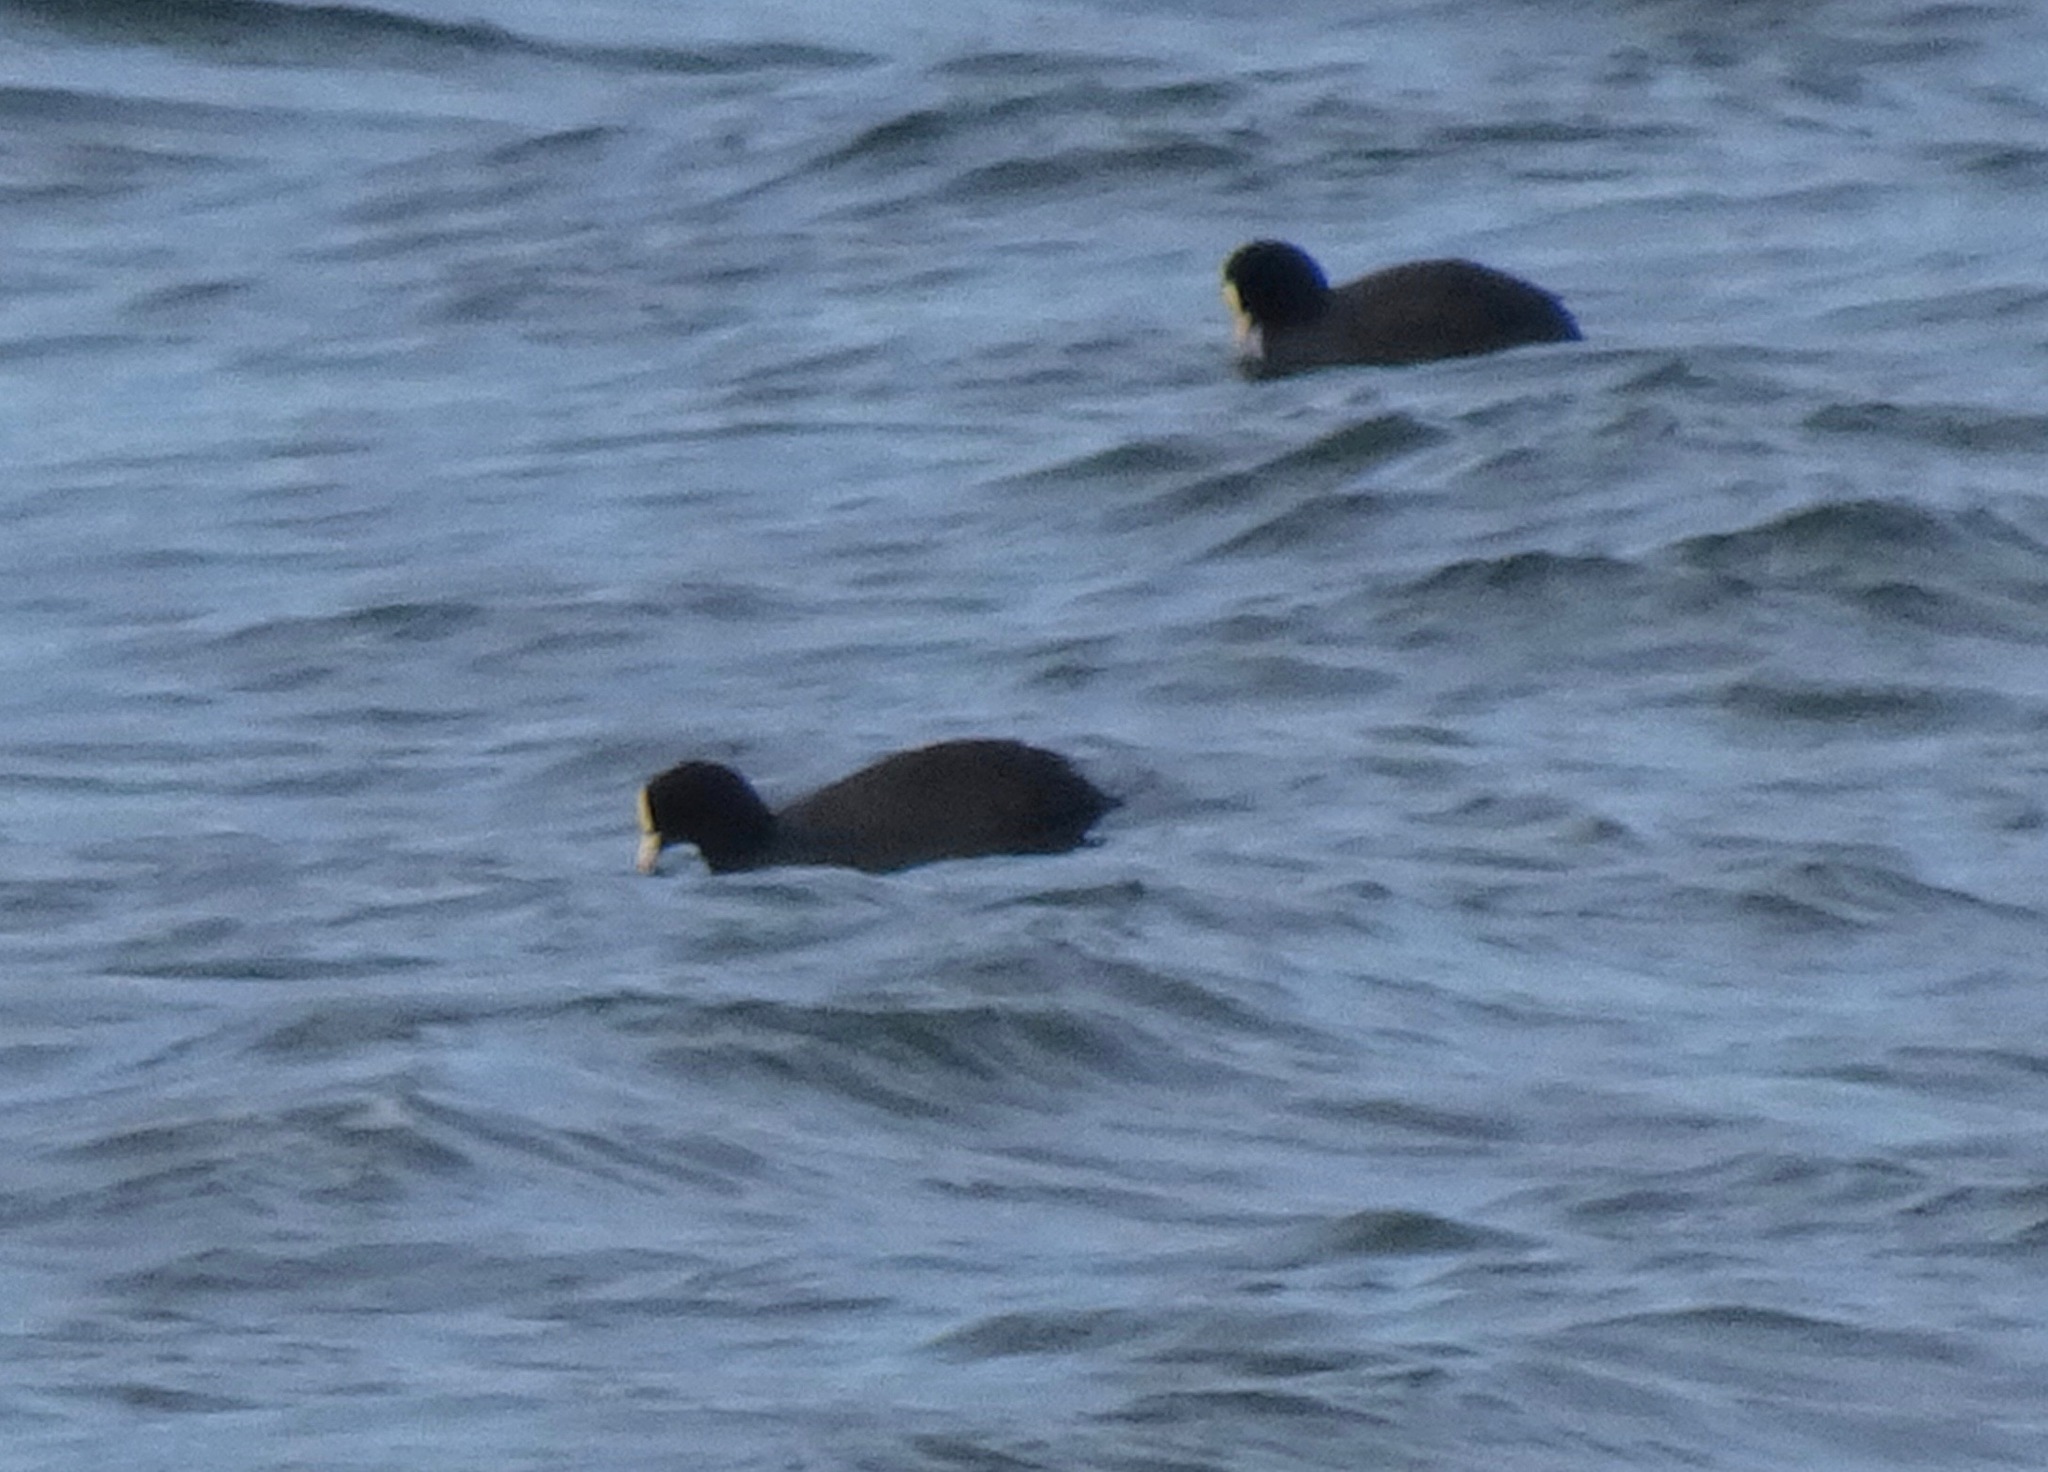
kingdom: Animalia
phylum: Chordata
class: Aves
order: Gruiformes
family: Rallidae
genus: Fulica
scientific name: Fulica atra
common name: Eurasian coot
